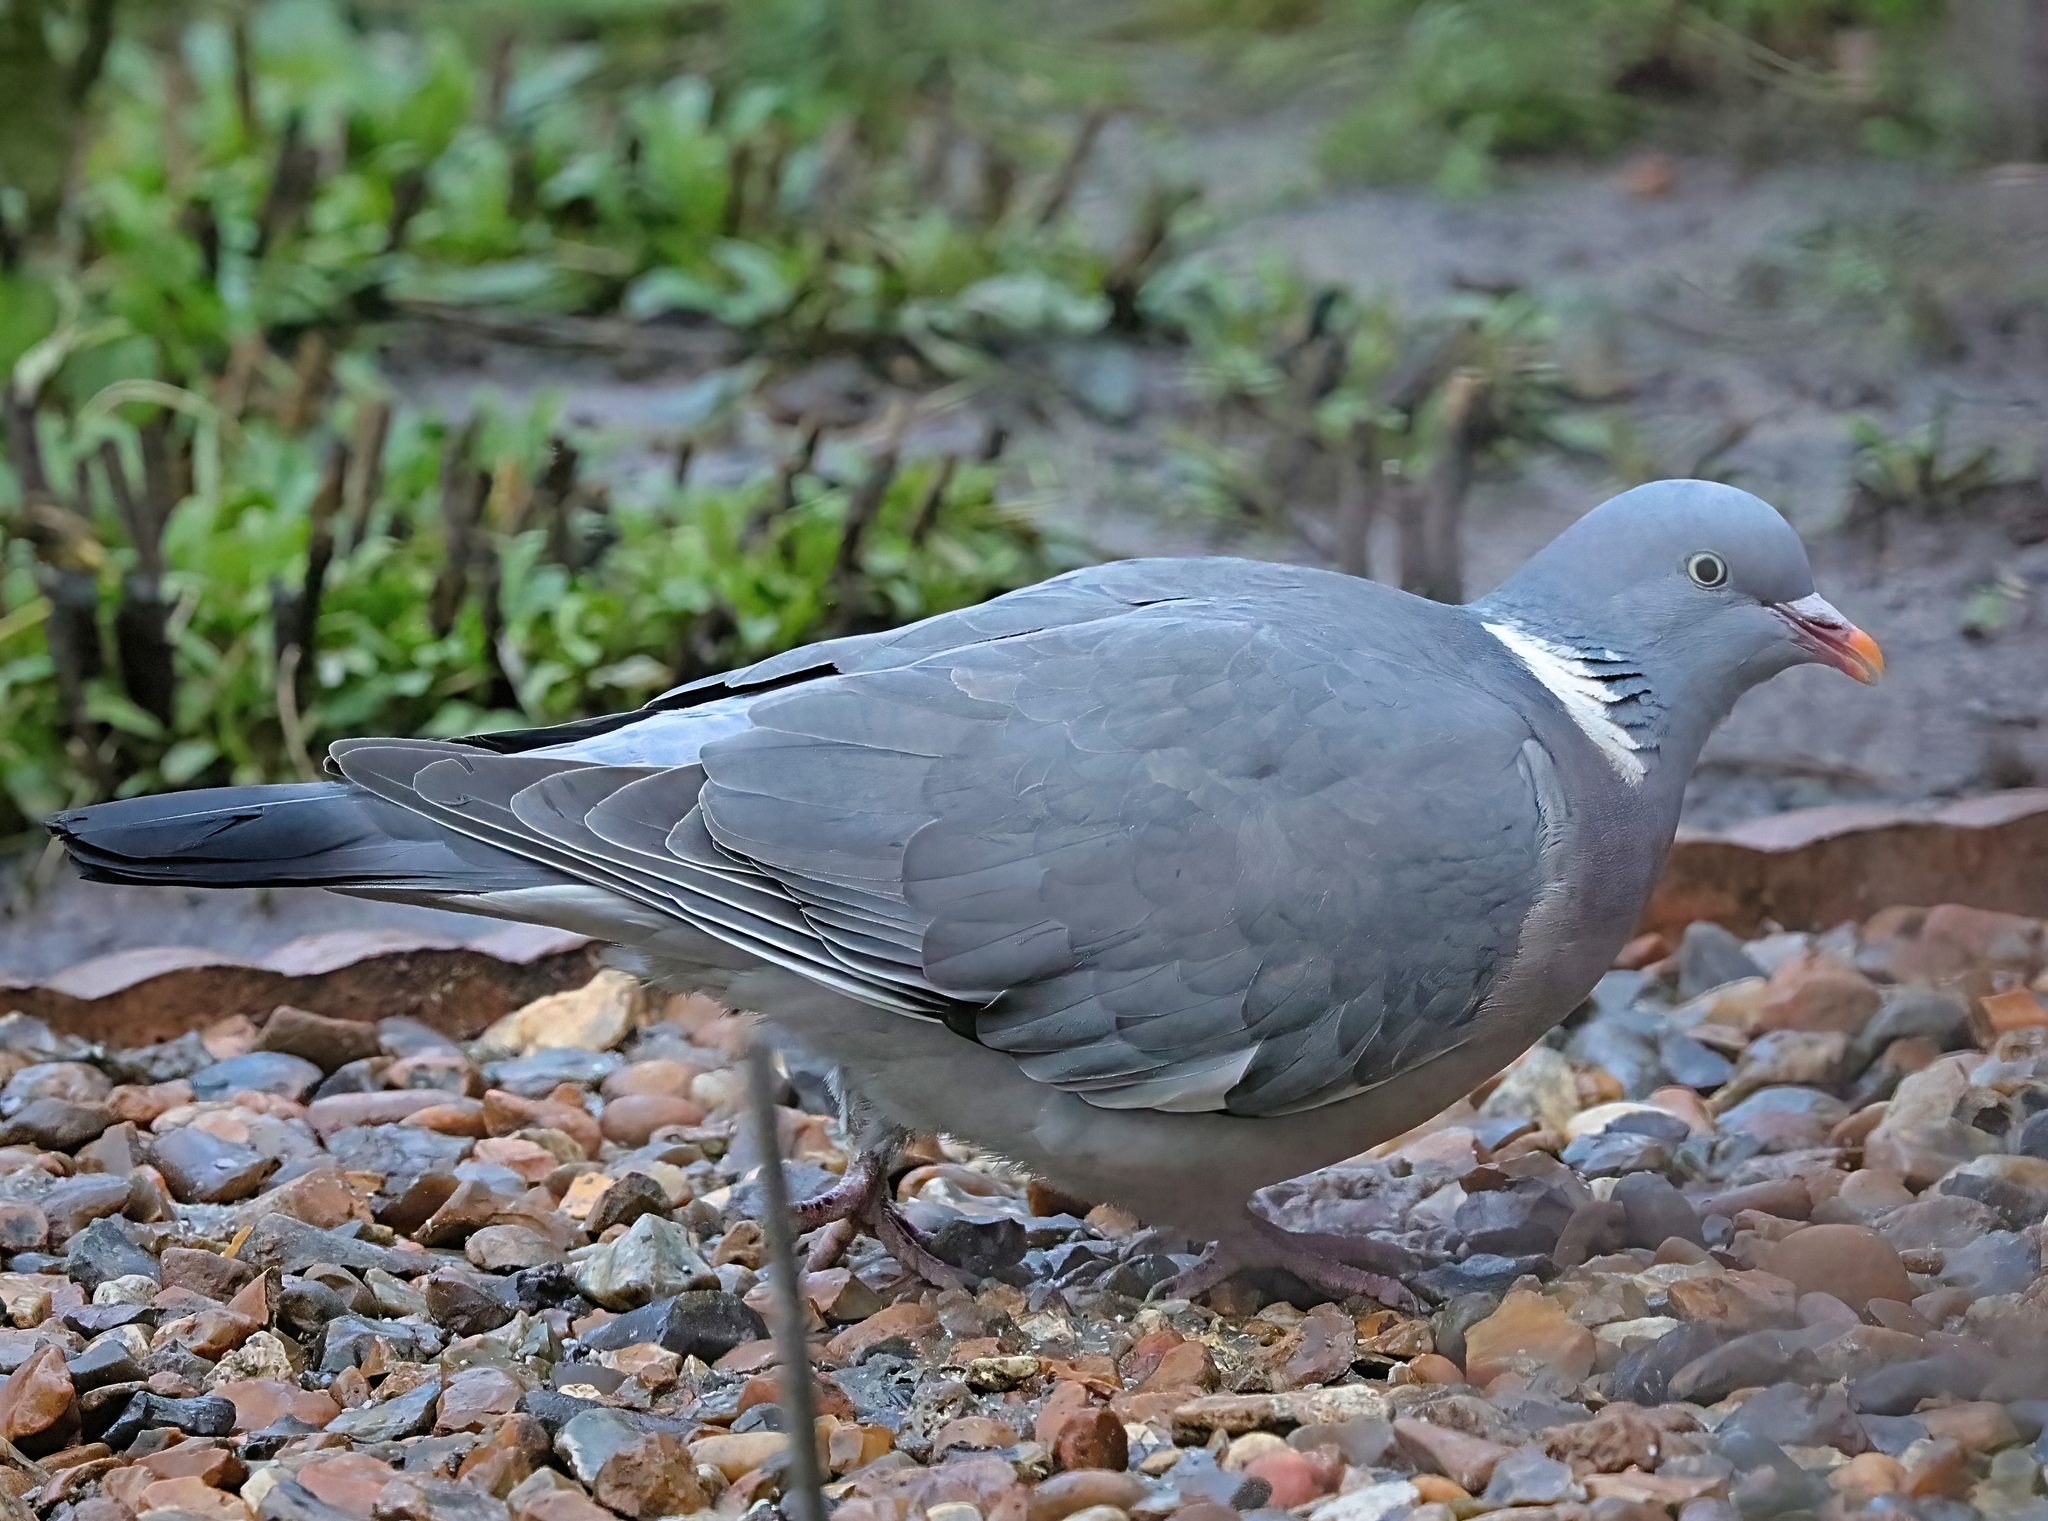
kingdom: Animalia
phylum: Chordata
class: Aves
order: Columbiformes
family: Columbidae
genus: Columba
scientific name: Columba palumbus
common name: Common wood pigeon
